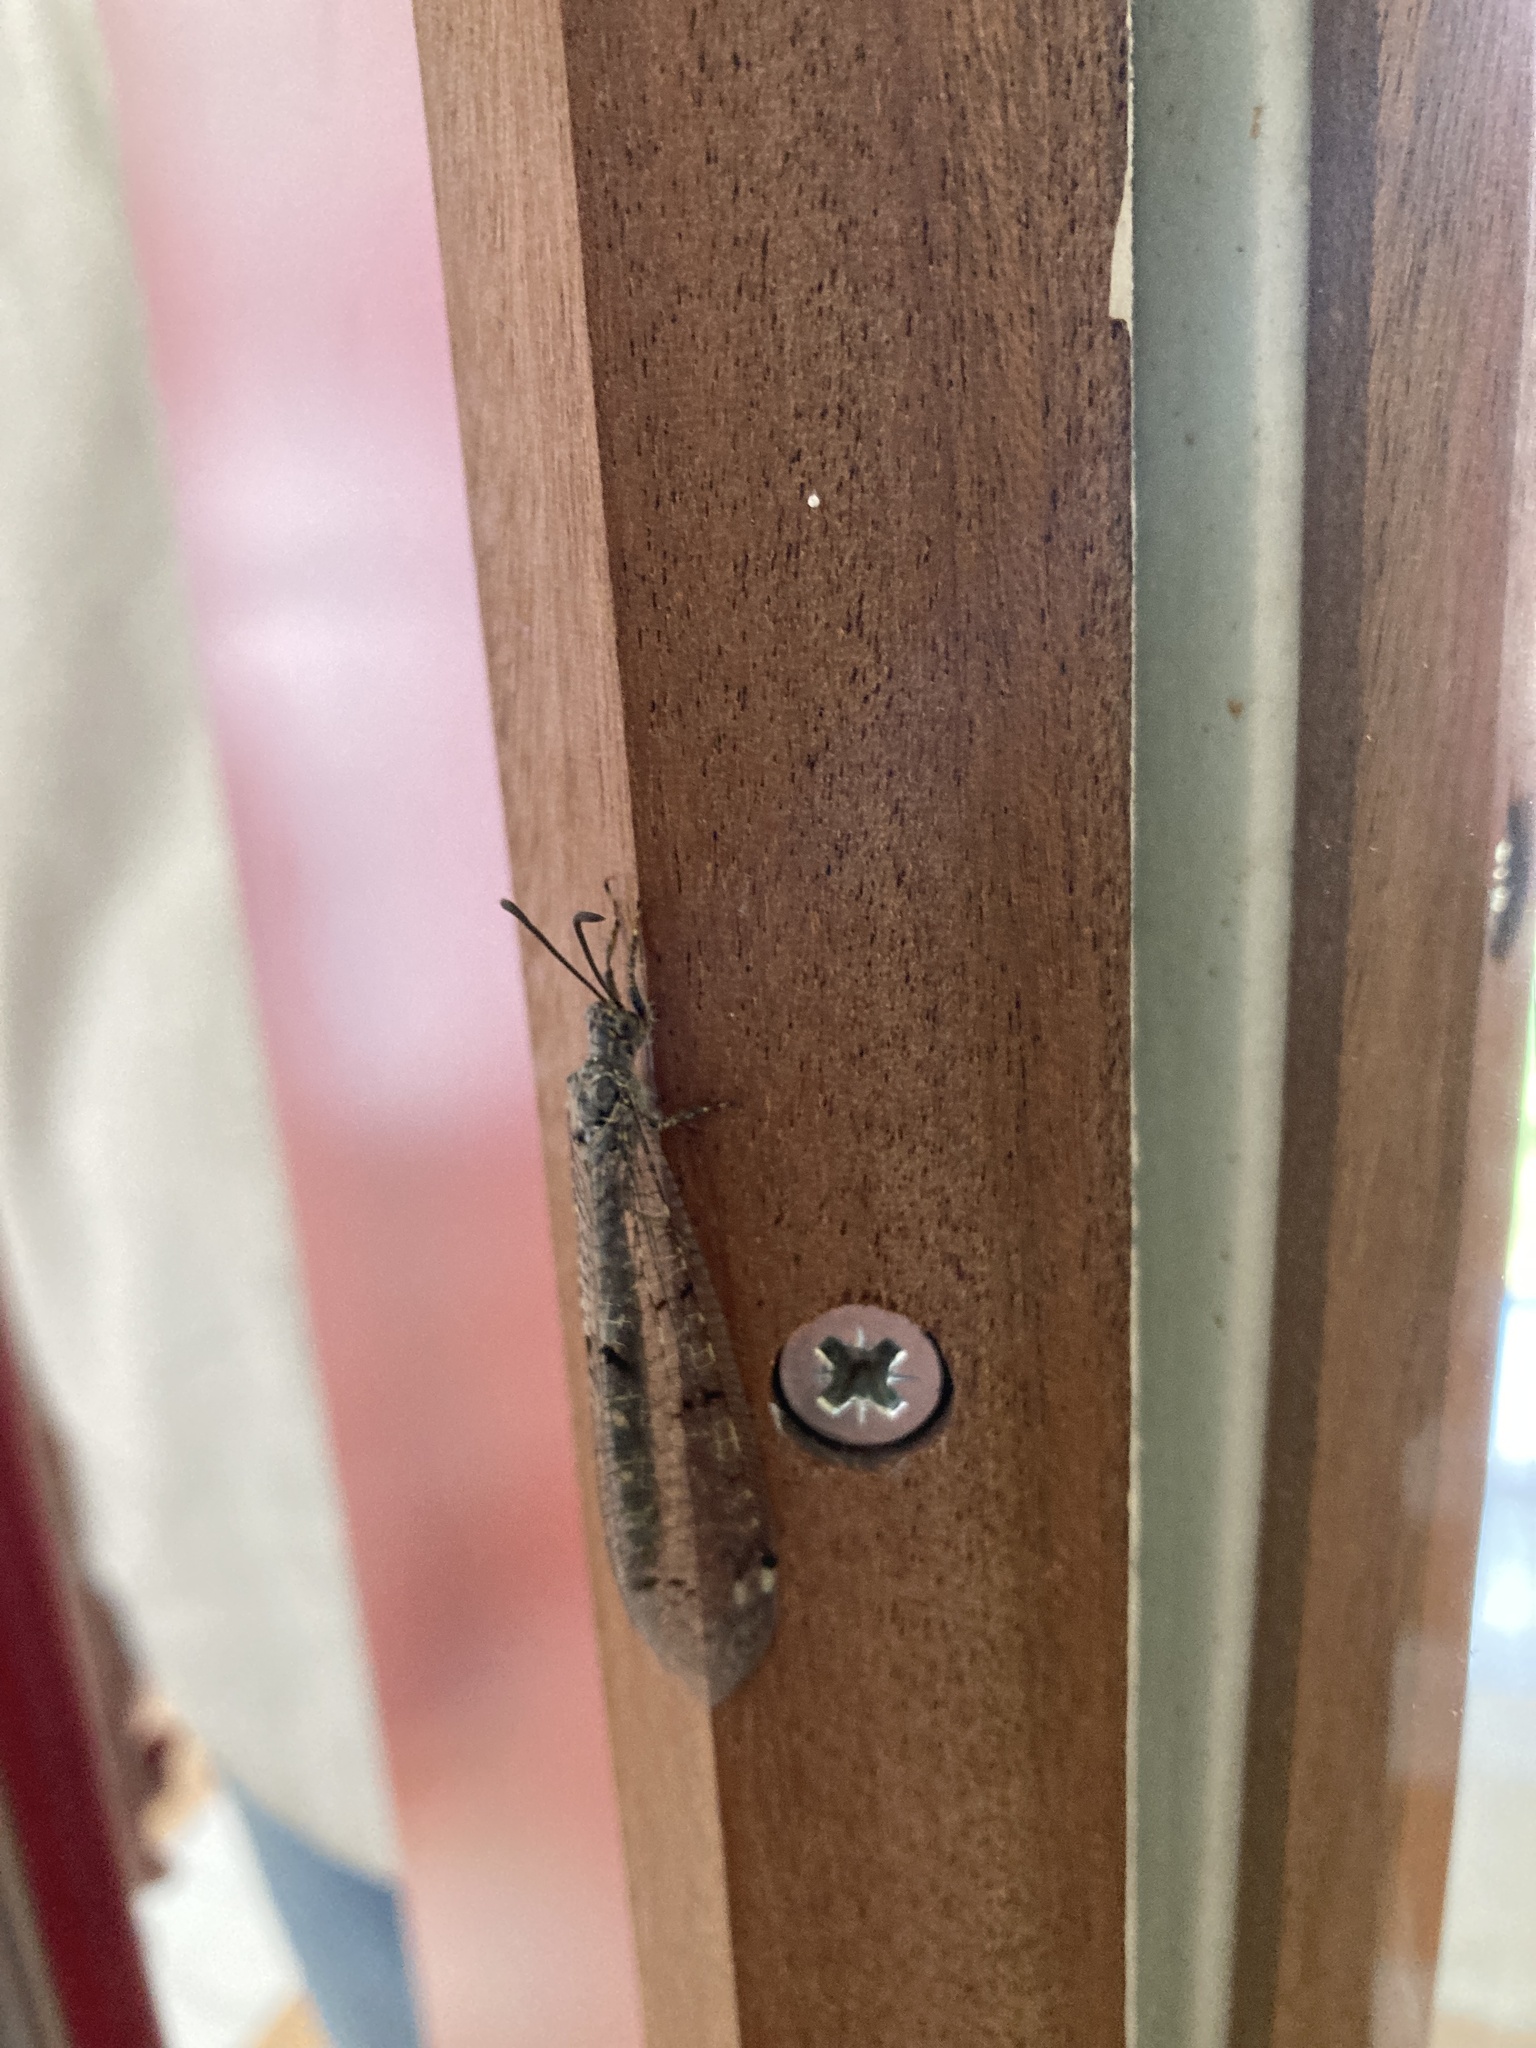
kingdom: Animalia
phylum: Arthropoda
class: Insecta
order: Neuroptera
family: Myrmeleontidae
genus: Distoleon
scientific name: Distoleon tetragrammicus
